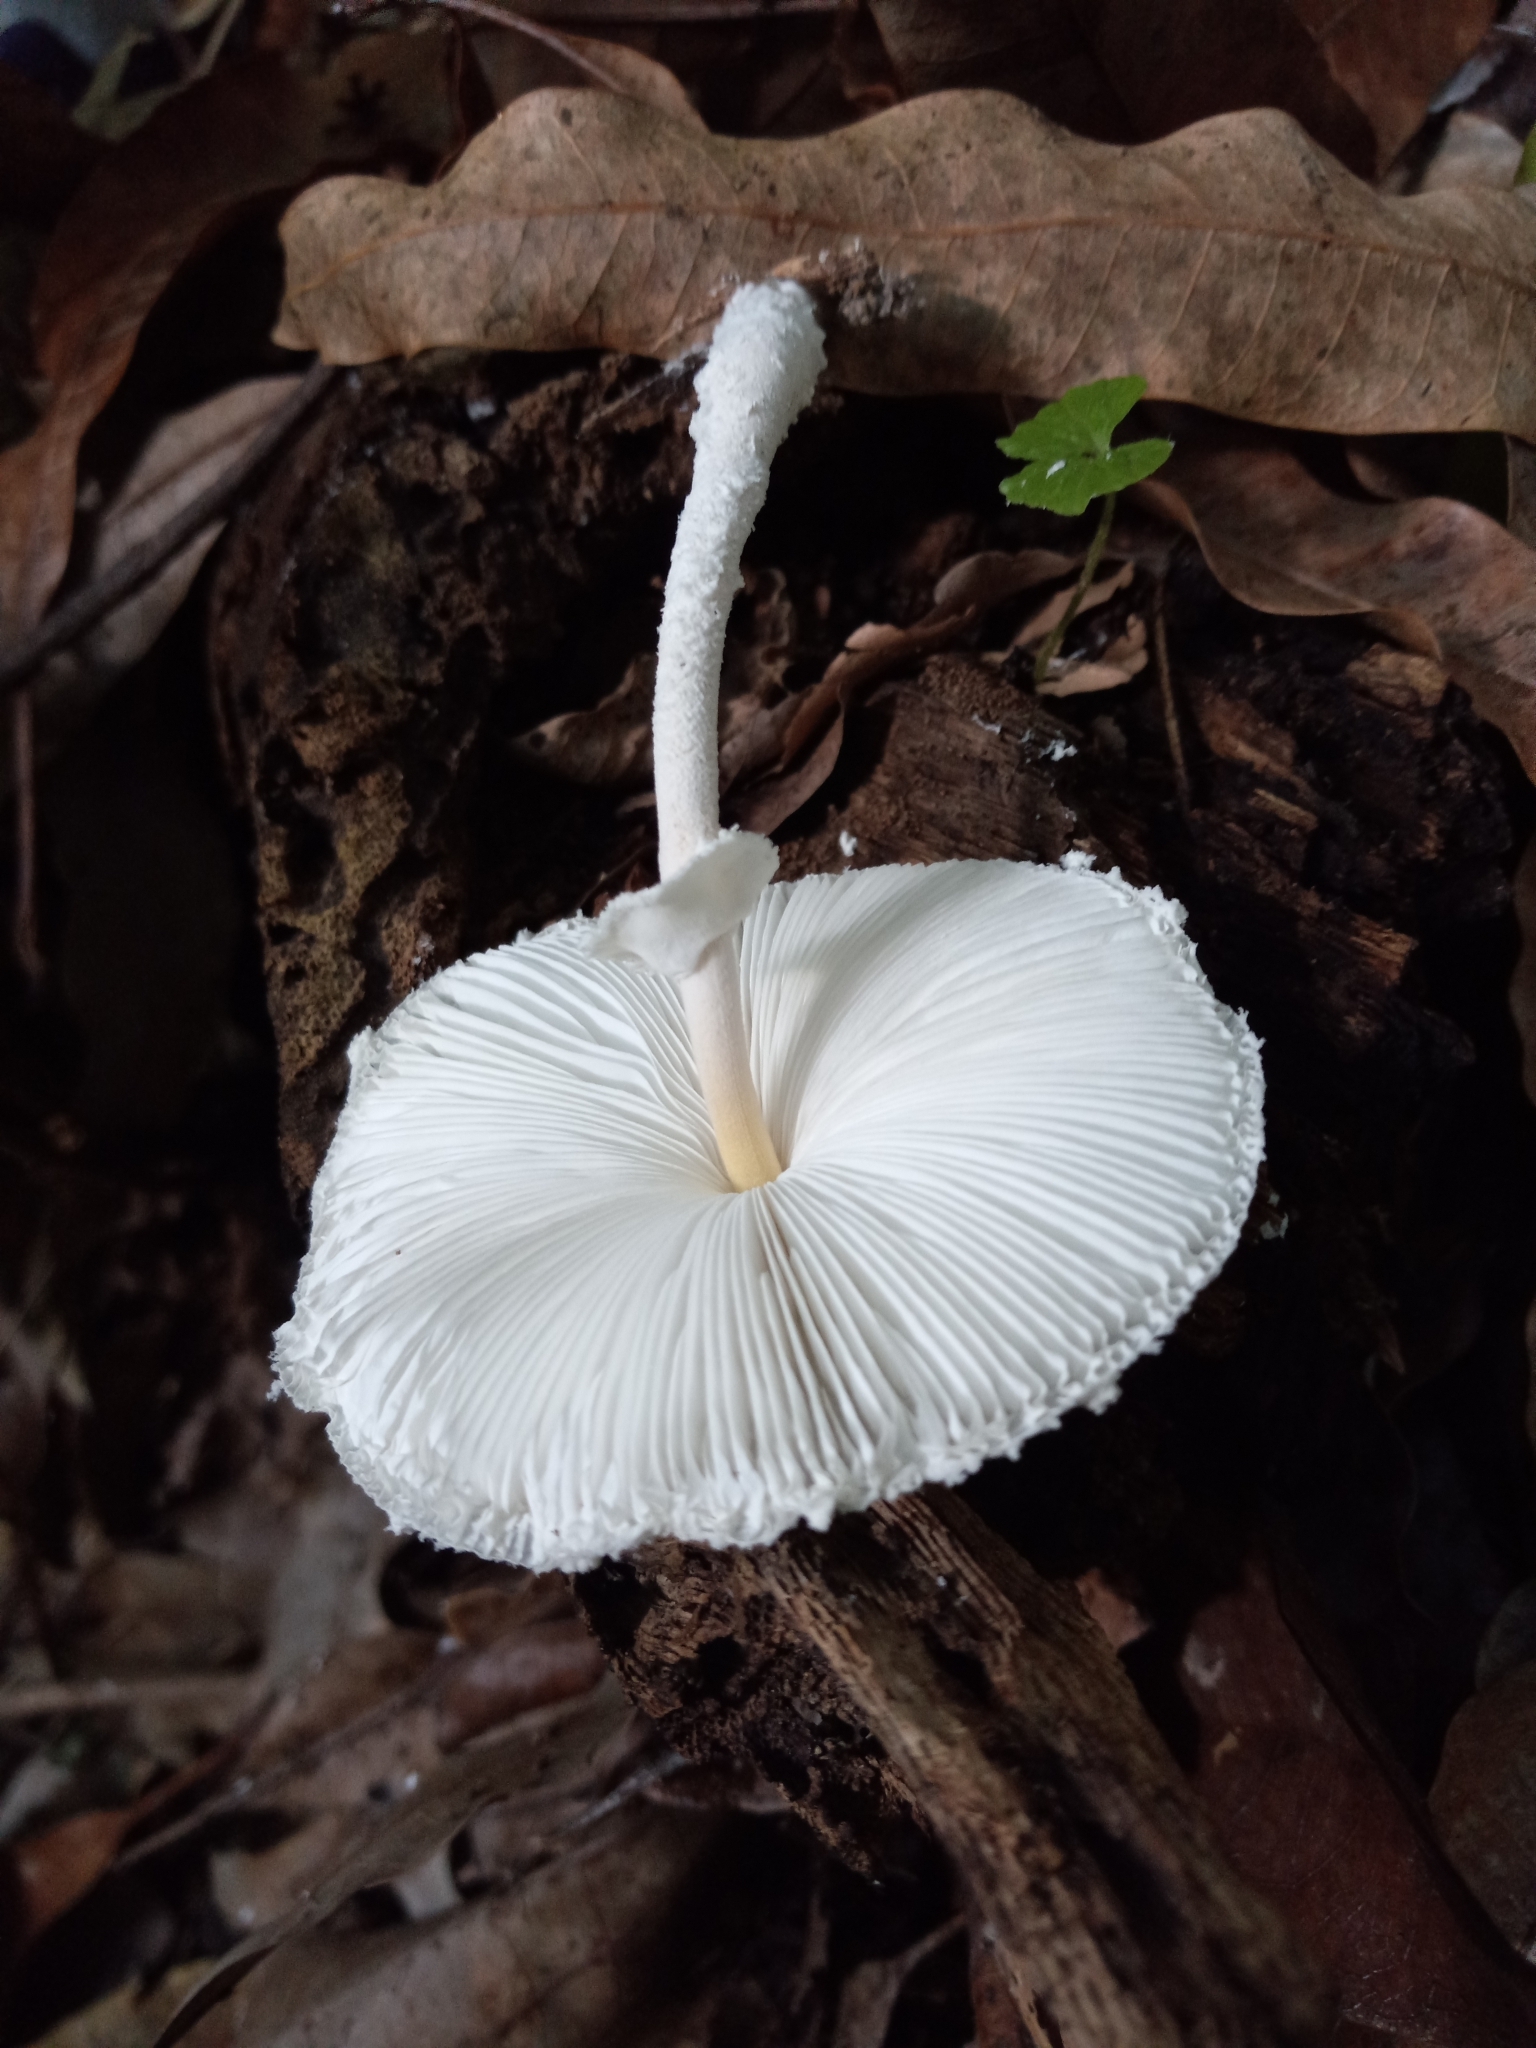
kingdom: Fungi
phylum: Basidiomycota
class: Agaricomycetes
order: Agaricales
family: Agaricaceae
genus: Leucocoprinus
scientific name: Leucocoprinus cretaceus
